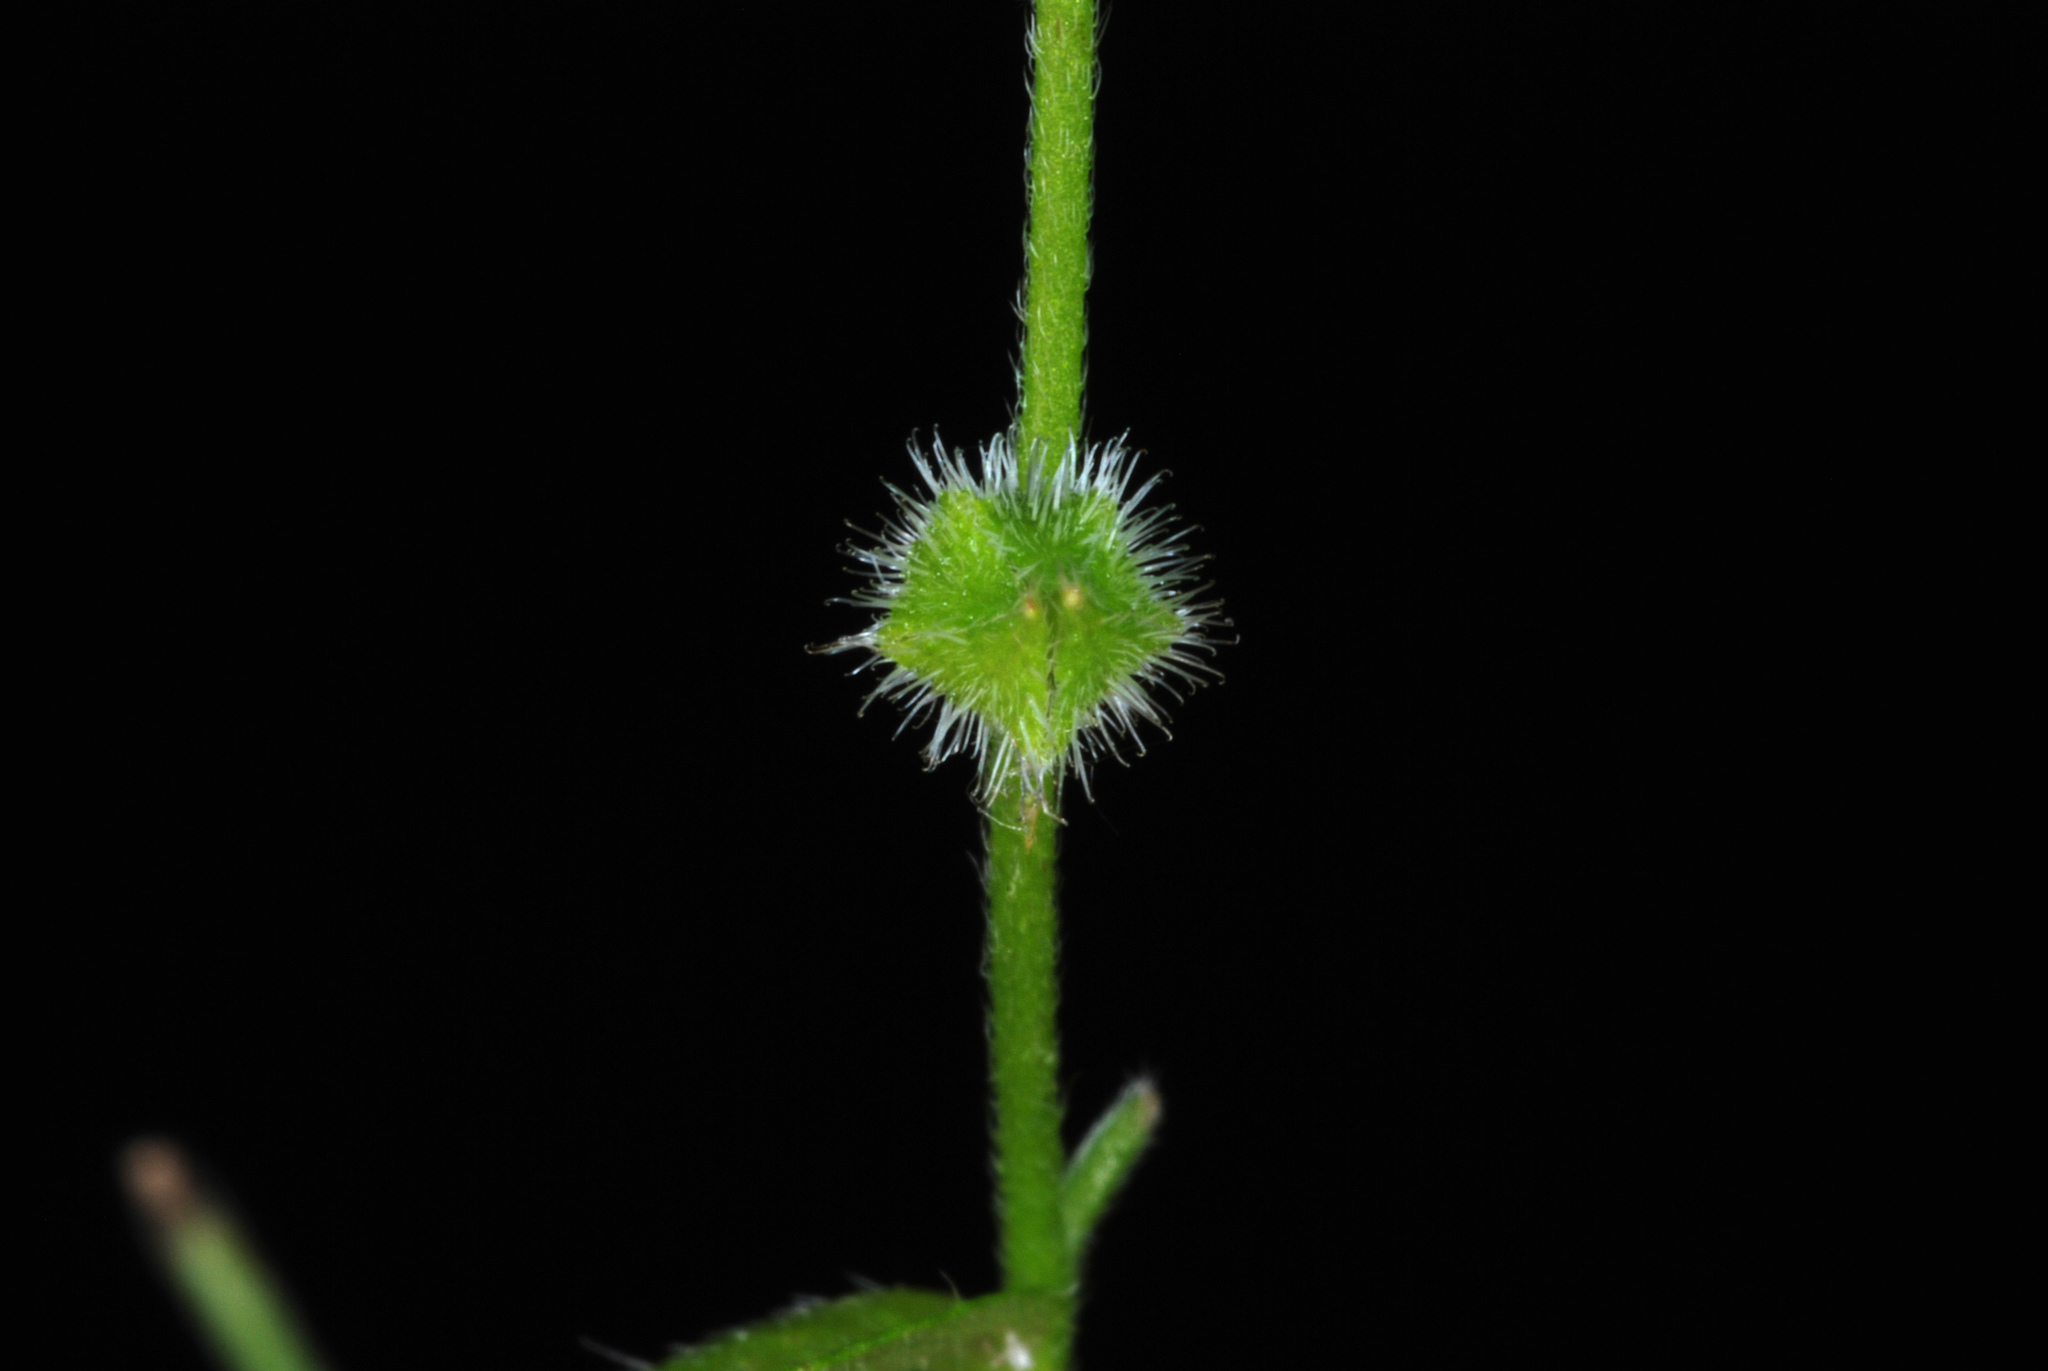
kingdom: Plantae
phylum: Tracheophyta
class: Magnoliopsida
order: Boraginales
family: Boraginaceae
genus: Myosotis
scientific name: Myosotis macrosperma
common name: Large-seed forget-me-not
